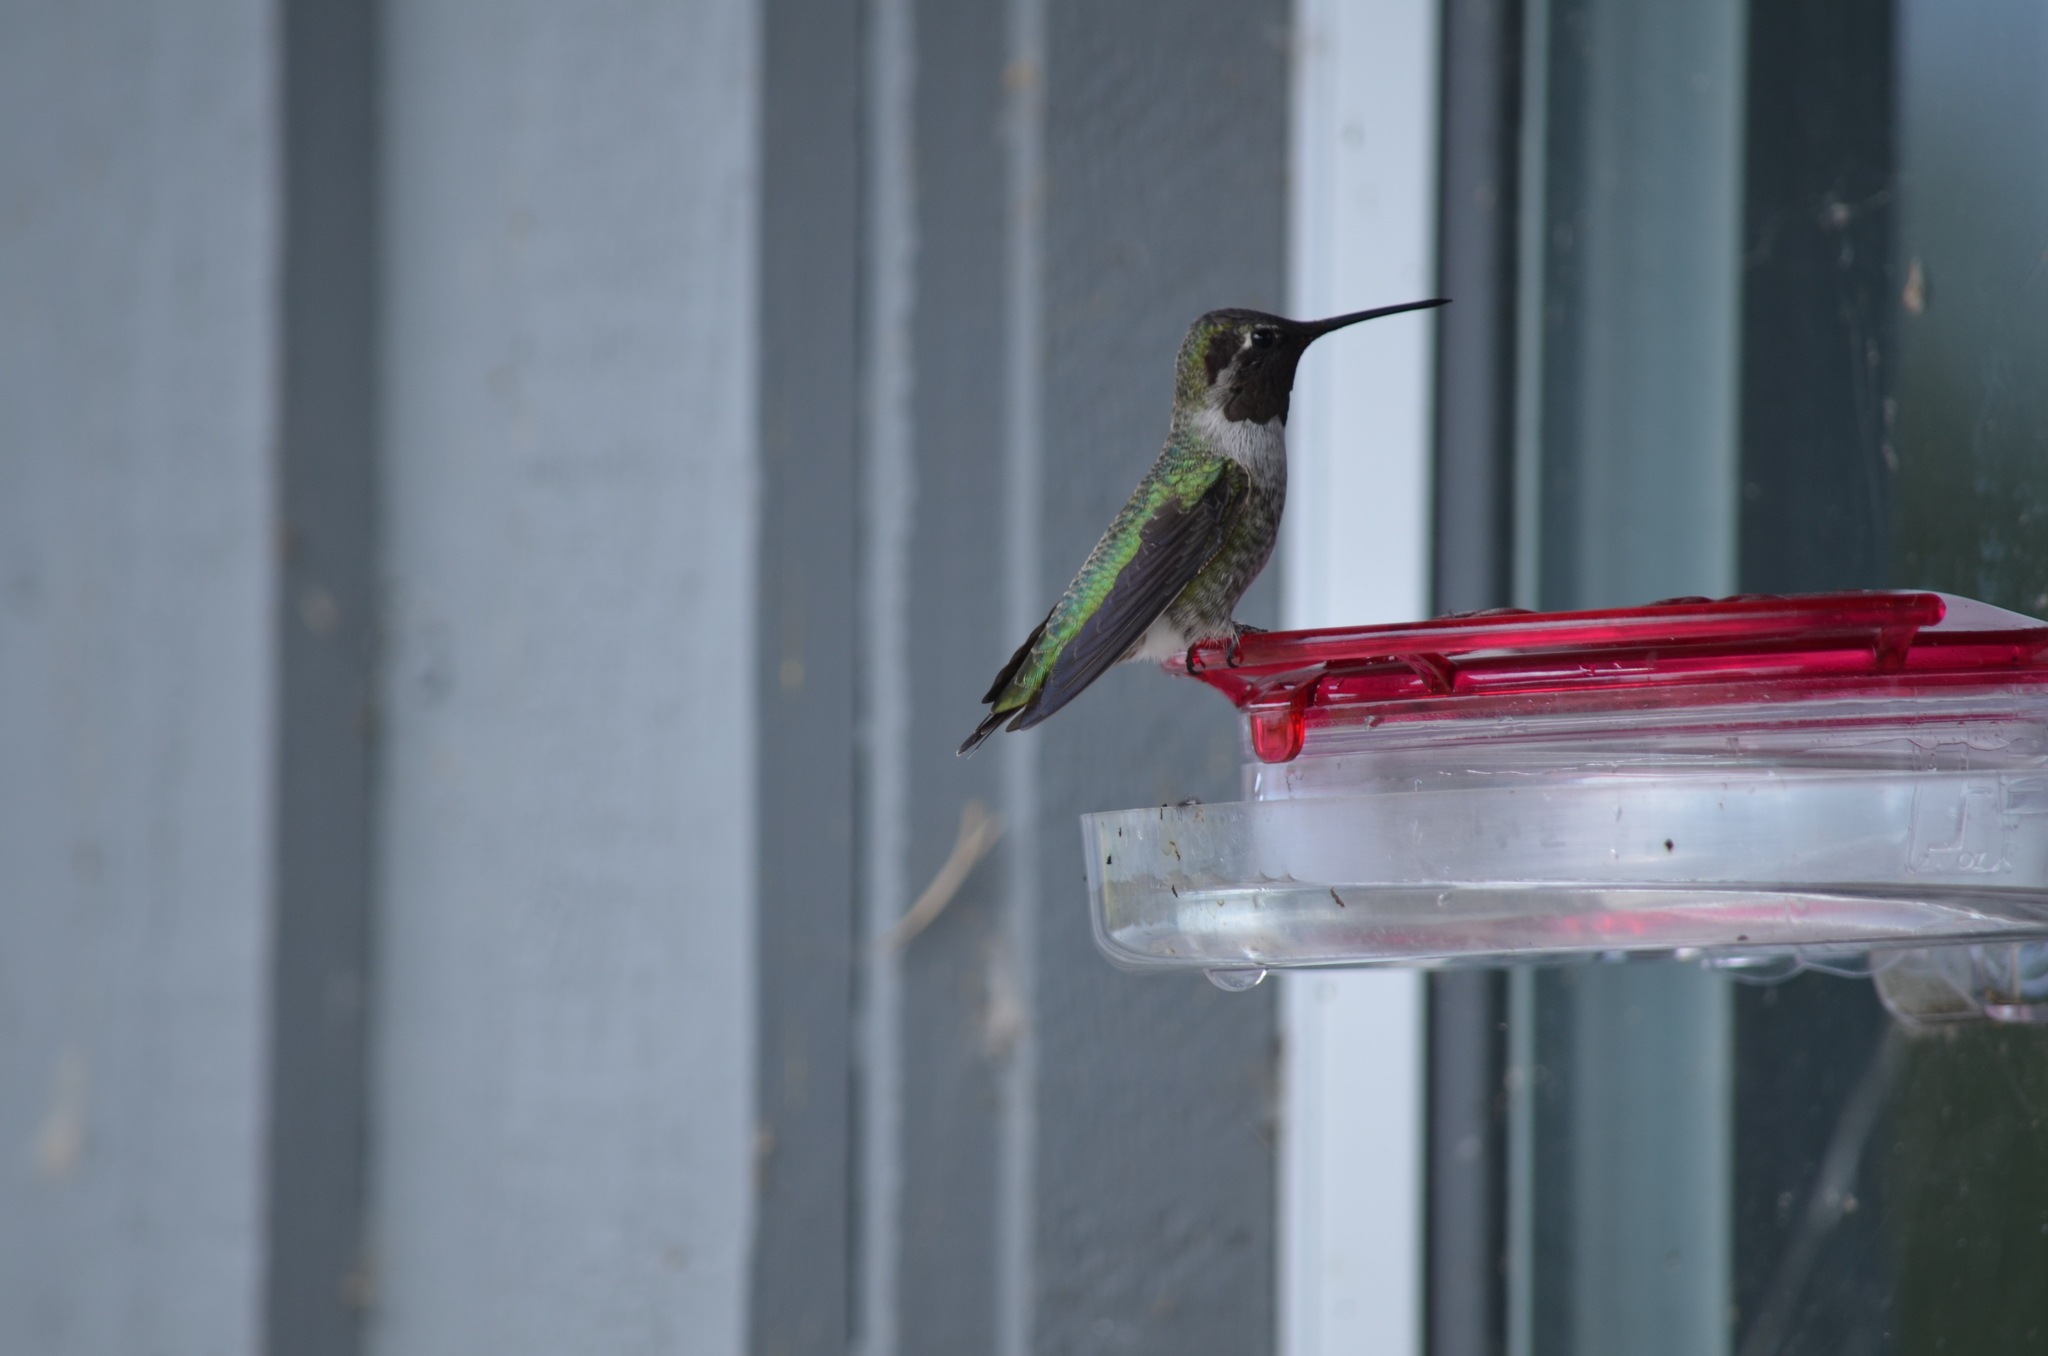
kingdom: Animalia
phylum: Chordata
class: Aves
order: Apodiformes
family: Trochilidae
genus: Calypte
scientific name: Calypte anna
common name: Anna's hummingbird
